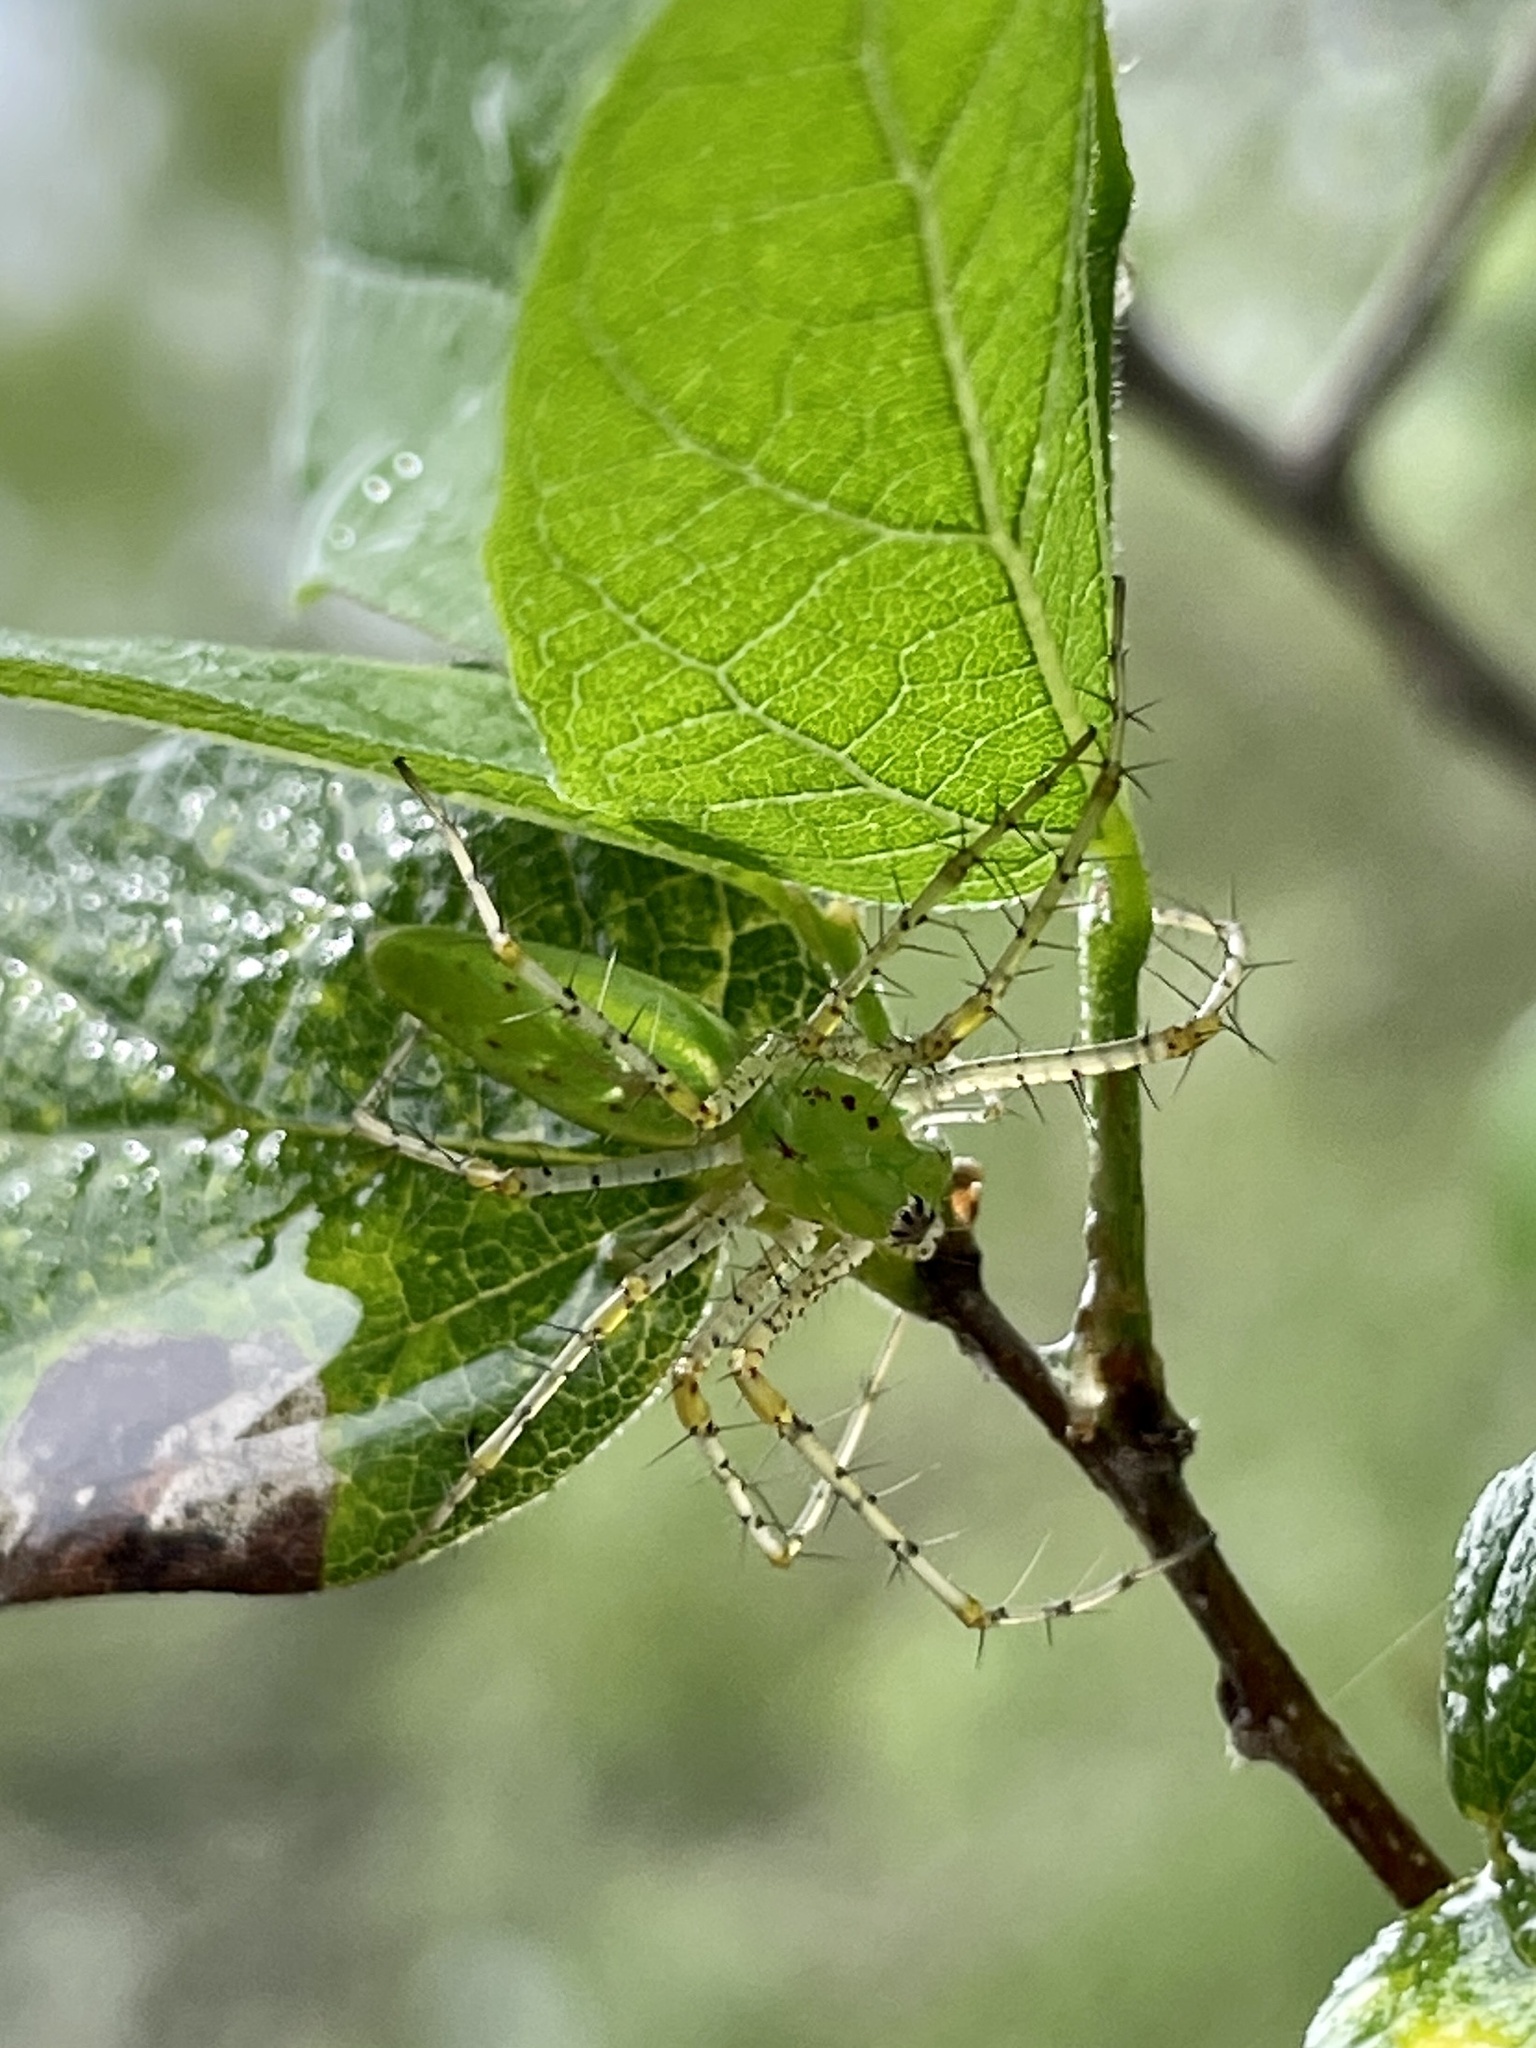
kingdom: Animalia
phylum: Arthropoda
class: Arachnida
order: Araneae
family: Oxyopidae
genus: Peucetia
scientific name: Peucetia viridans
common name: Lynx spiders
